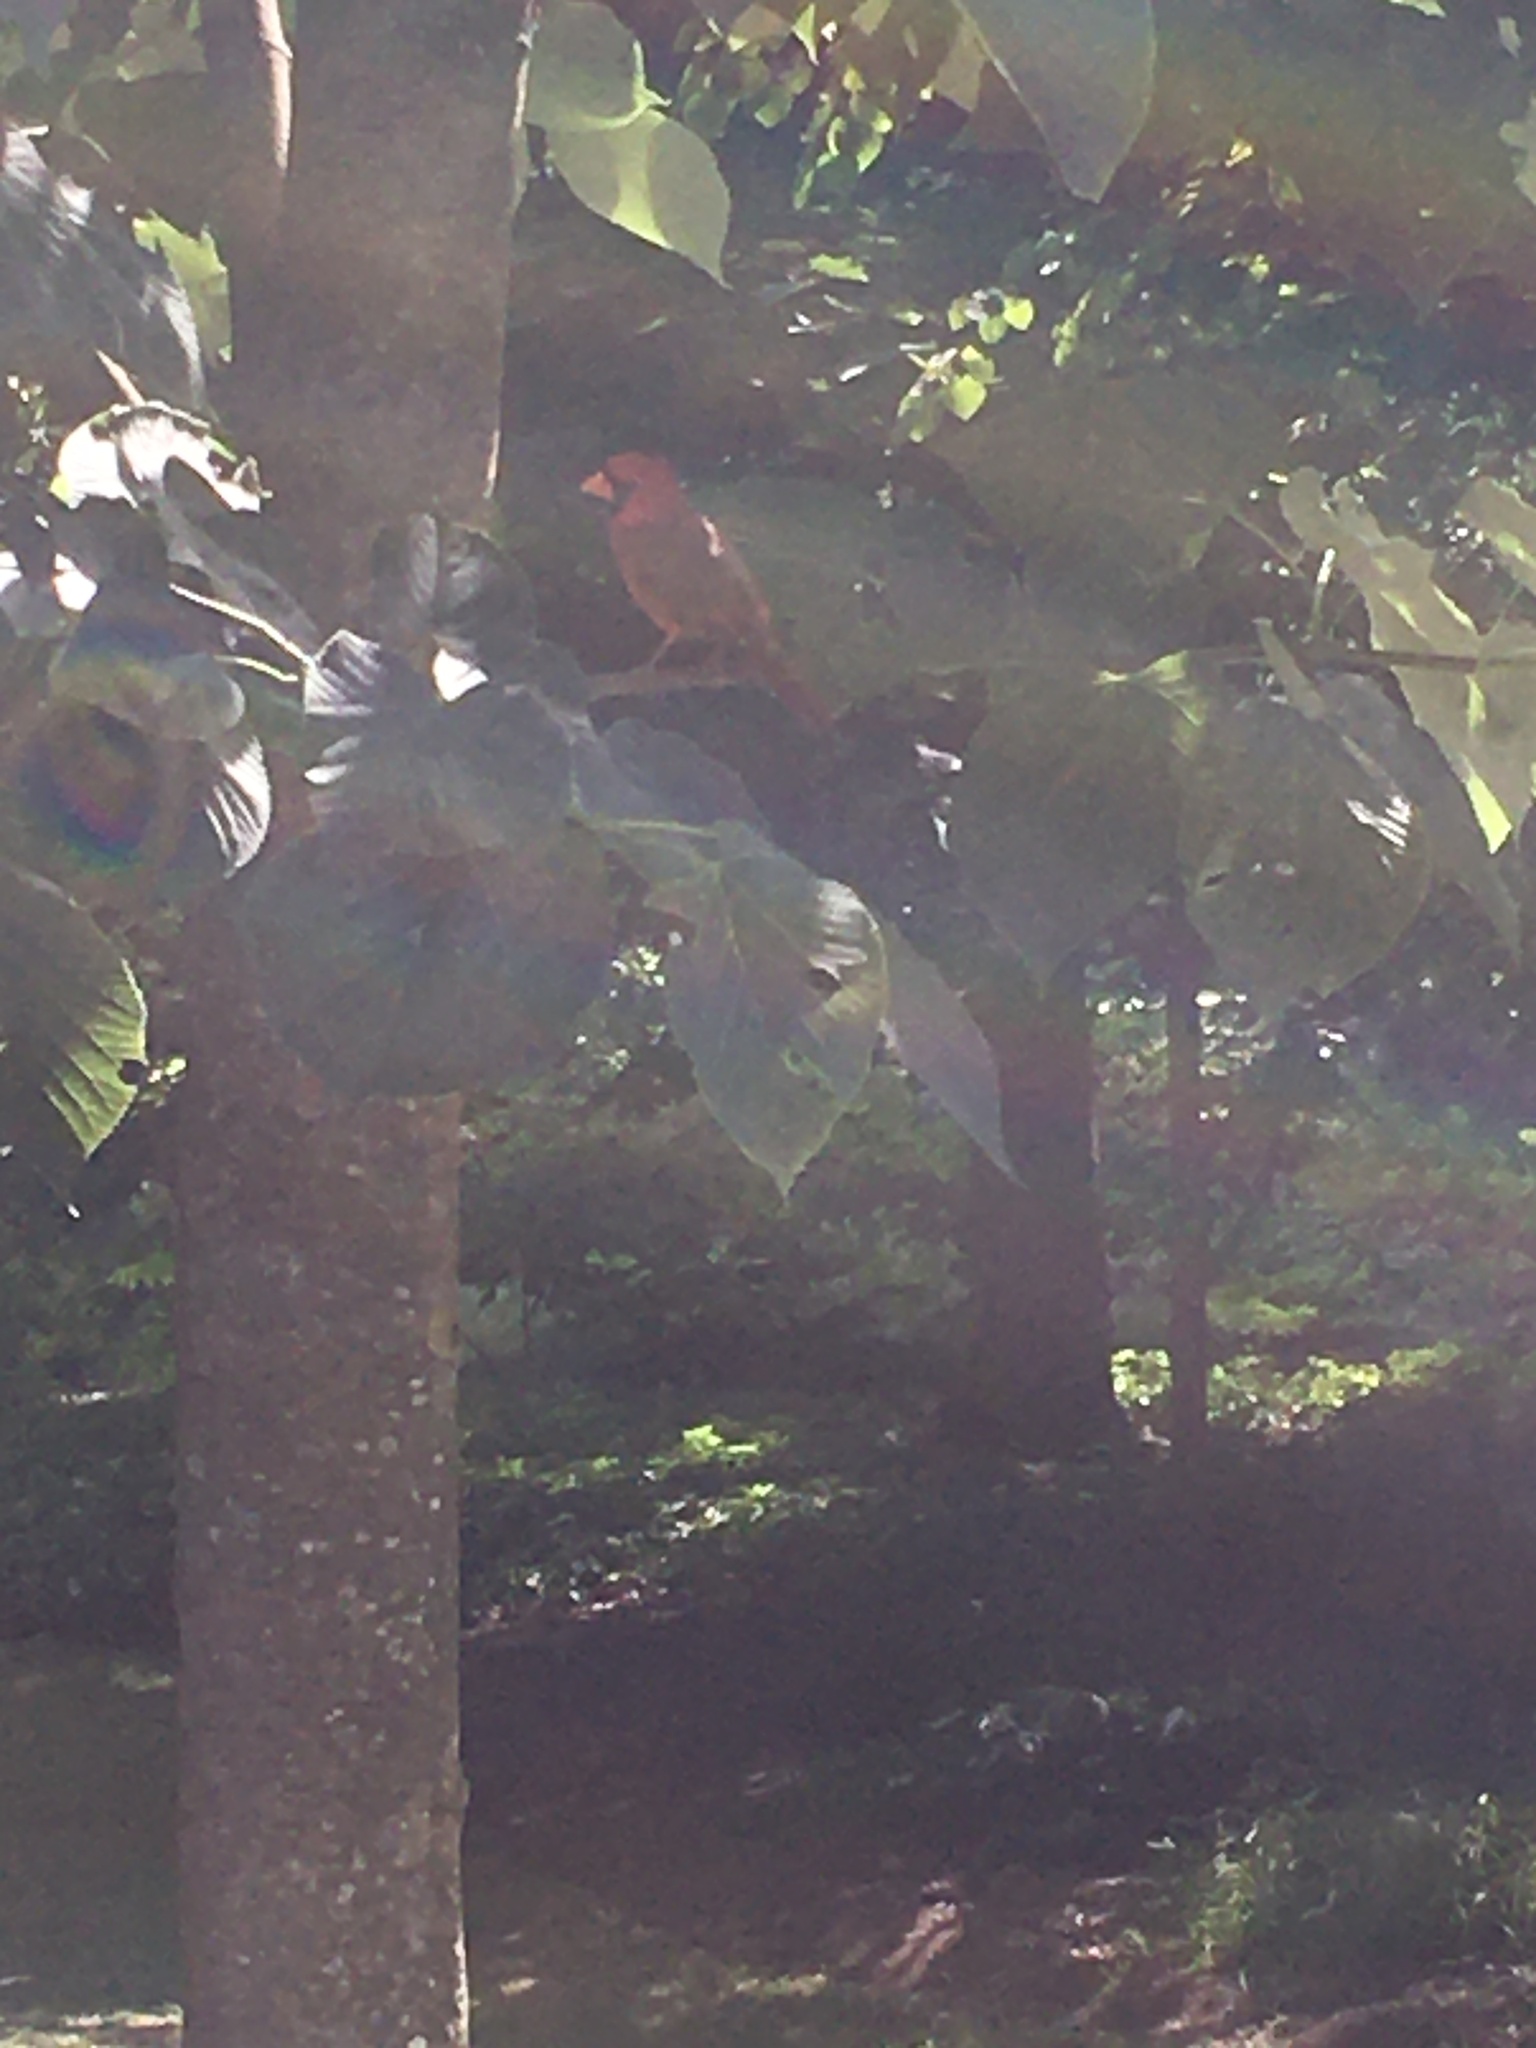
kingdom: Animalia
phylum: Chordata
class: Aves
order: Passeriformes
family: Cardinalidae
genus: Cardinalis
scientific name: Cardinalis cardinalis
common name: Northern cardinal
